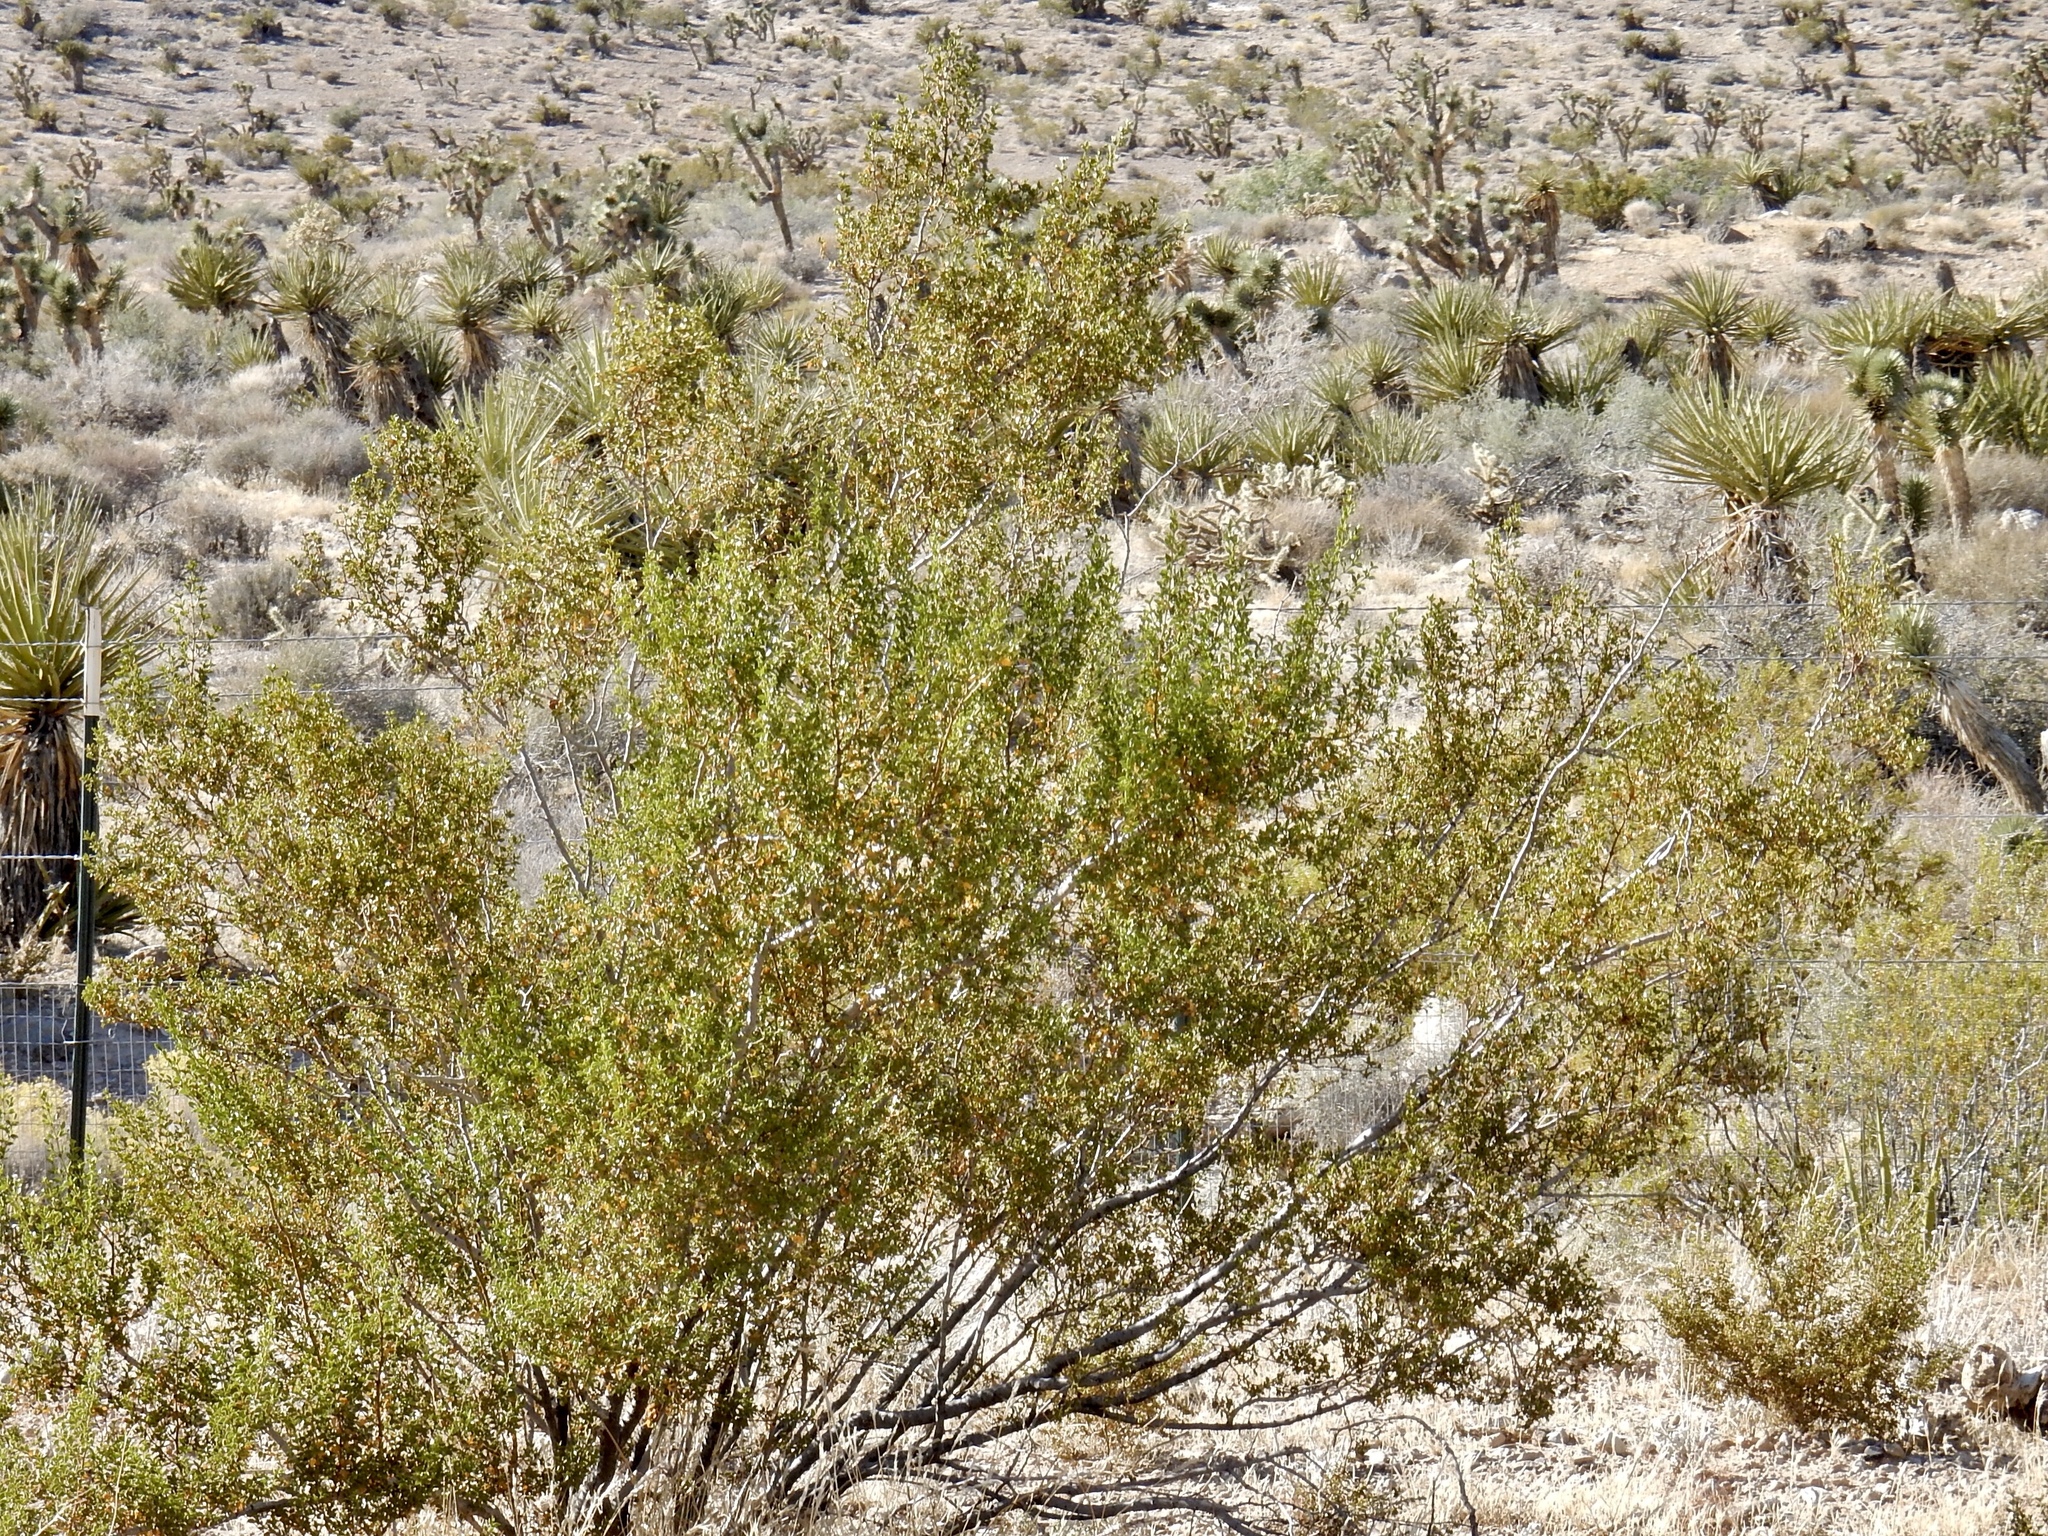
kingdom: Plantae
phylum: Tracheophyta
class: Magnoliopsida
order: Zygophyllales
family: Zygophyllaceae
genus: Larrea
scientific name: Larrea tridentata
